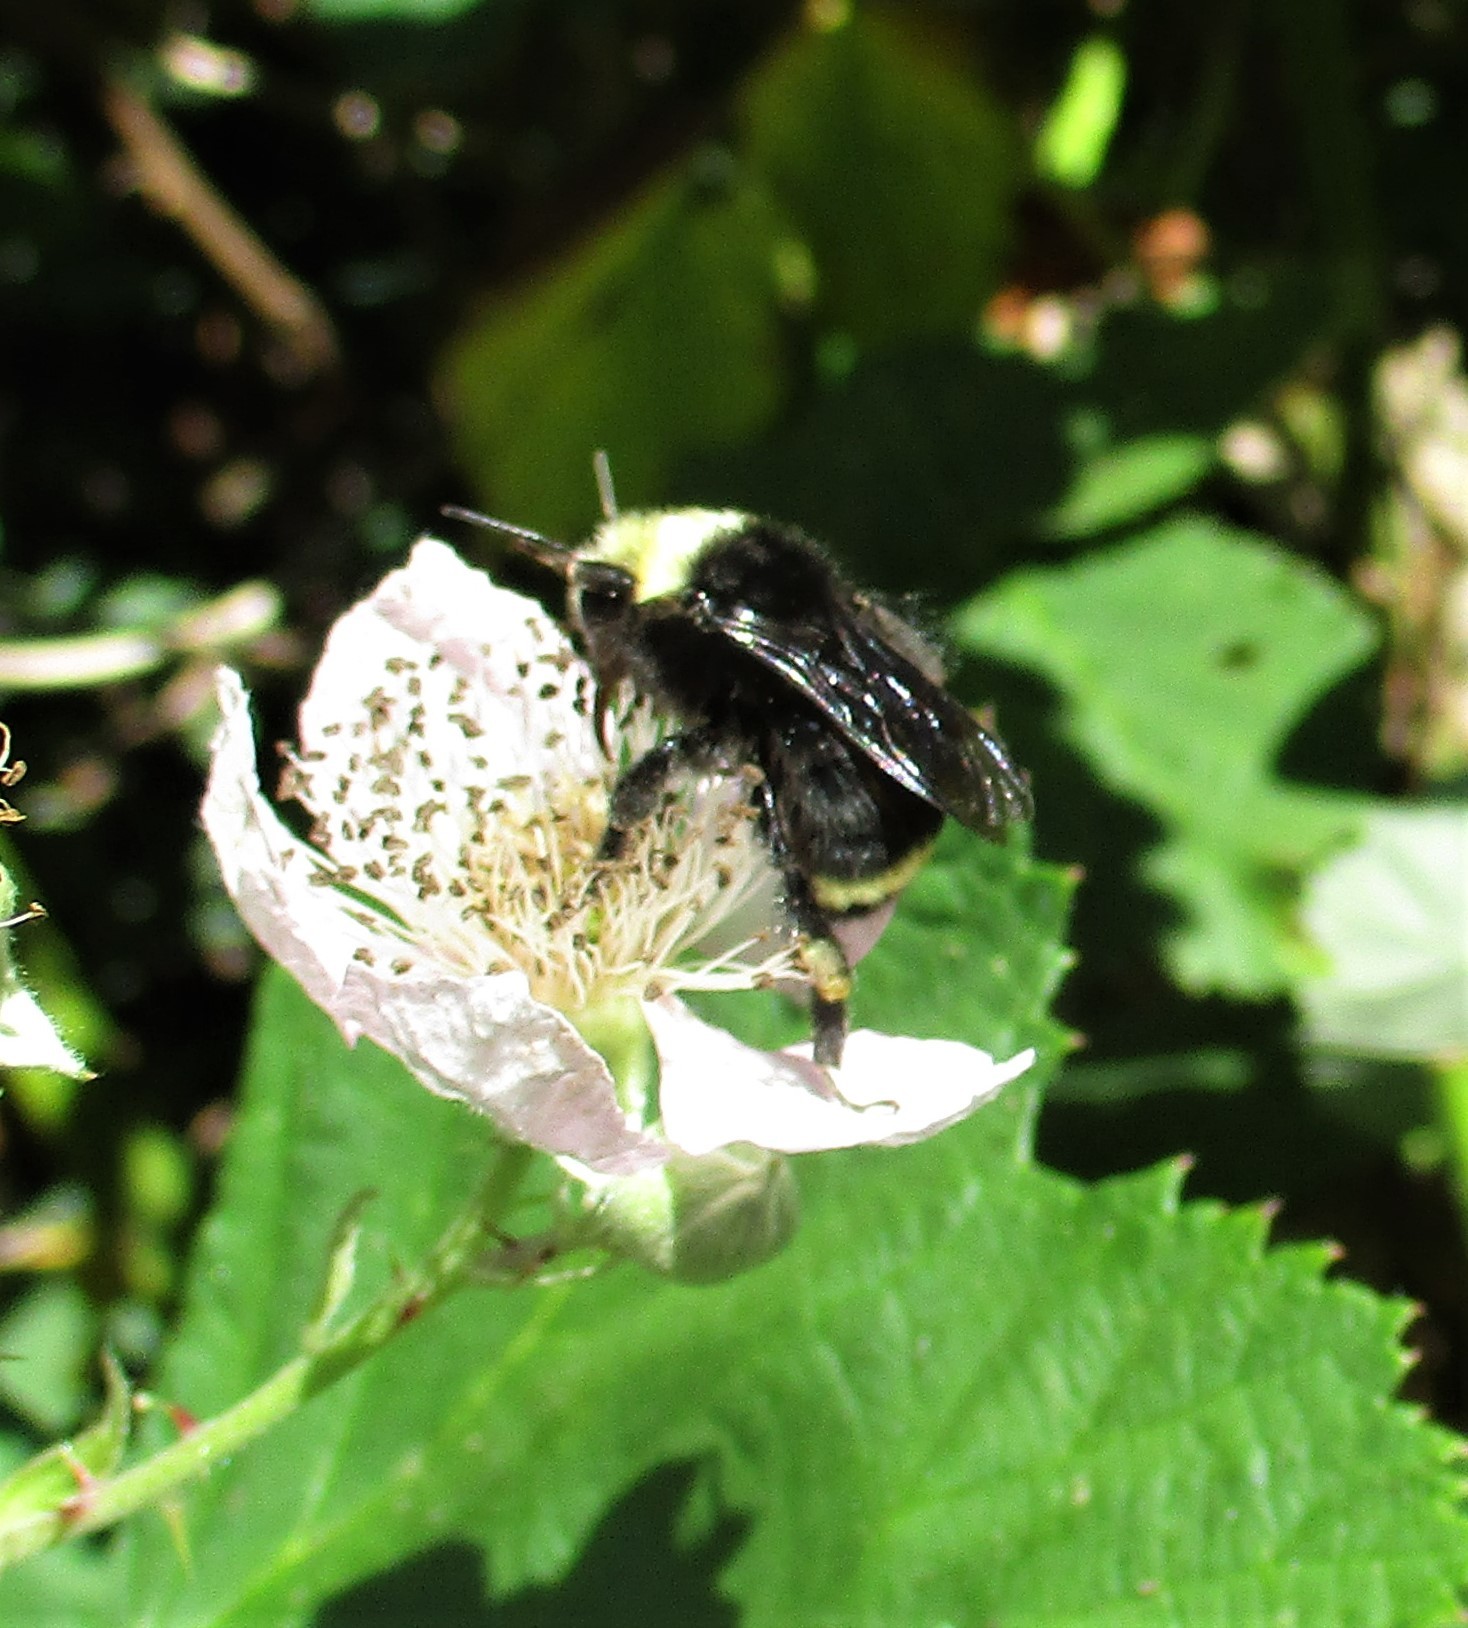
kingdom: Animalia
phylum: Arthropoda
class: Insecta
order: Hymenoptera
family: Apidae
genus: Bombus
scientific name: Bombus vosnesenskii
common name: Vosnesensky bumble bee
